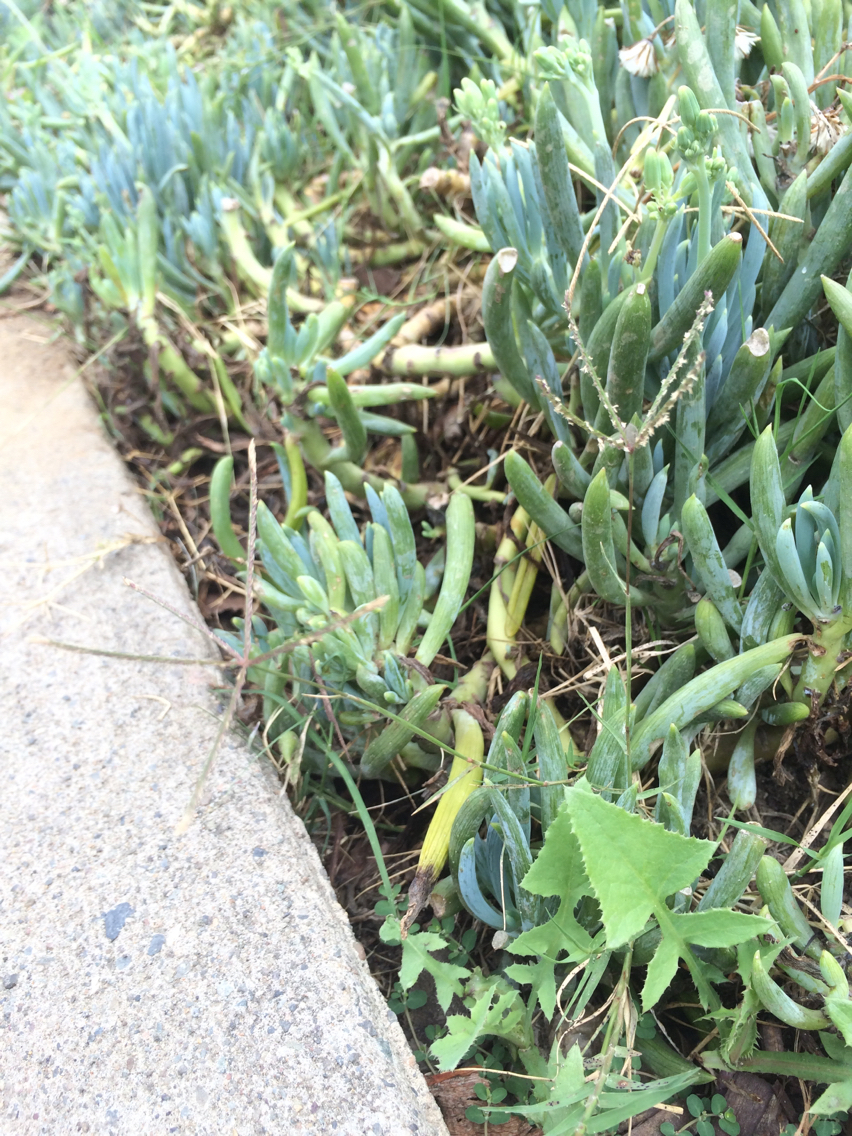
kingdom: Plantae
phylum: Tracheophyta
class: Liliopsida
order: Poales
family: Poaceae
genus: Cynodon
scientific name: Cynodon dactylon
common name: Bermuda grass
